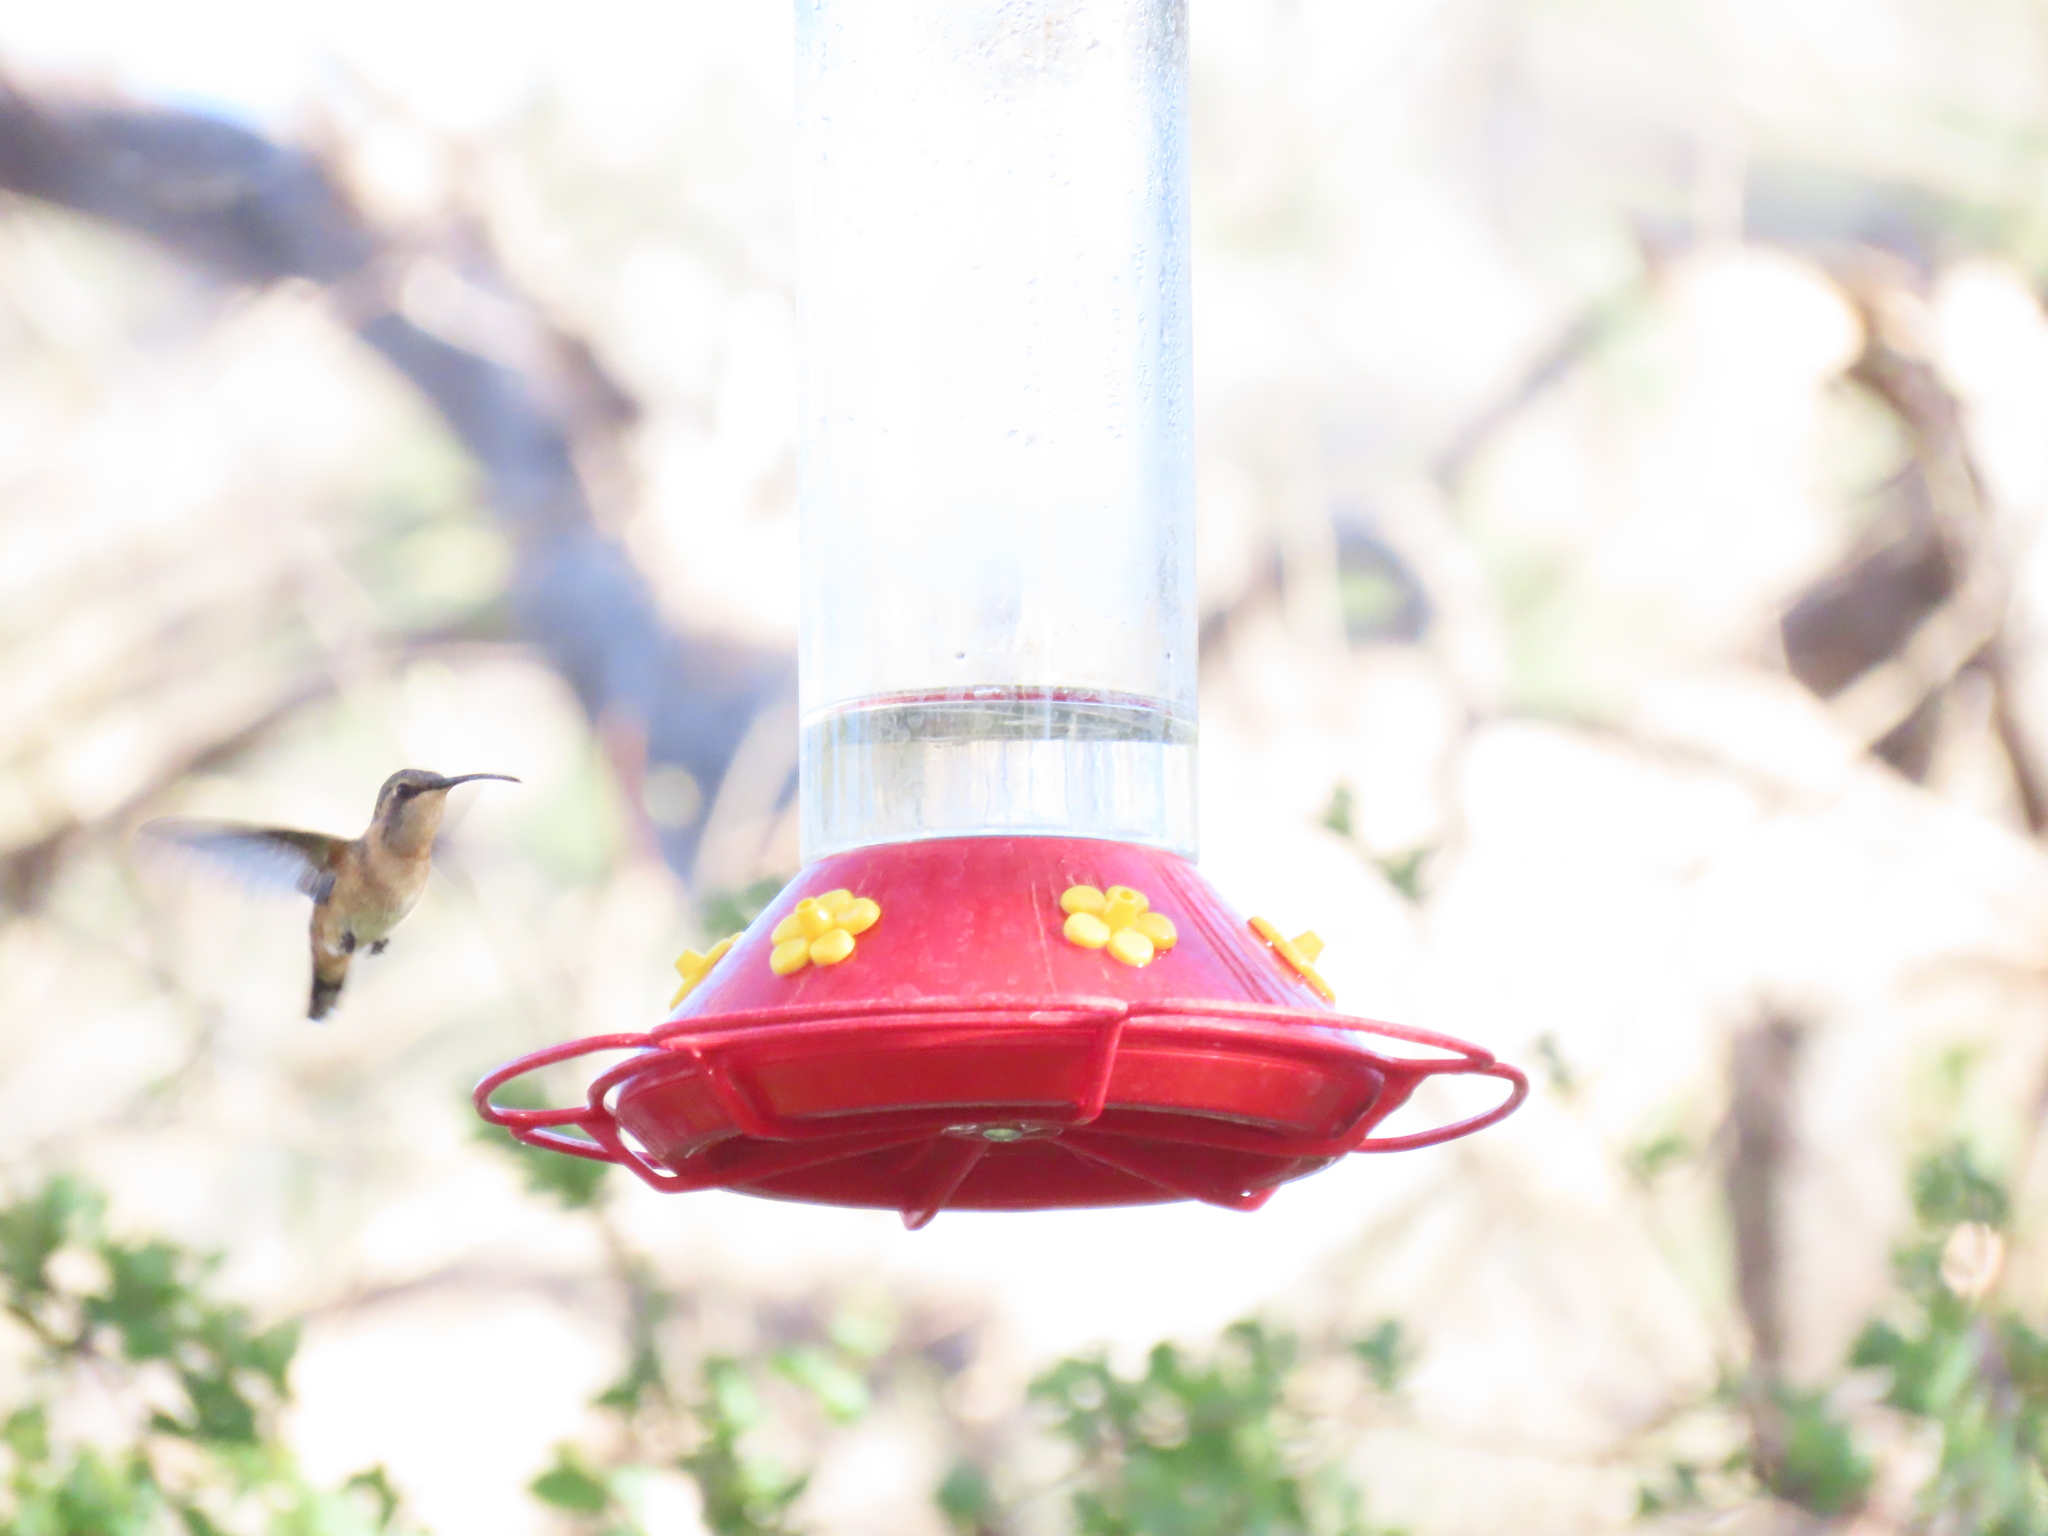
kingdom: Animalia
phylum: Chordata
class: Aves
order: Apodiformes
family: Trochilidae
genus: Calothorax
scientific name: Calothorax lucifer
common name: Lucifer sheartail
